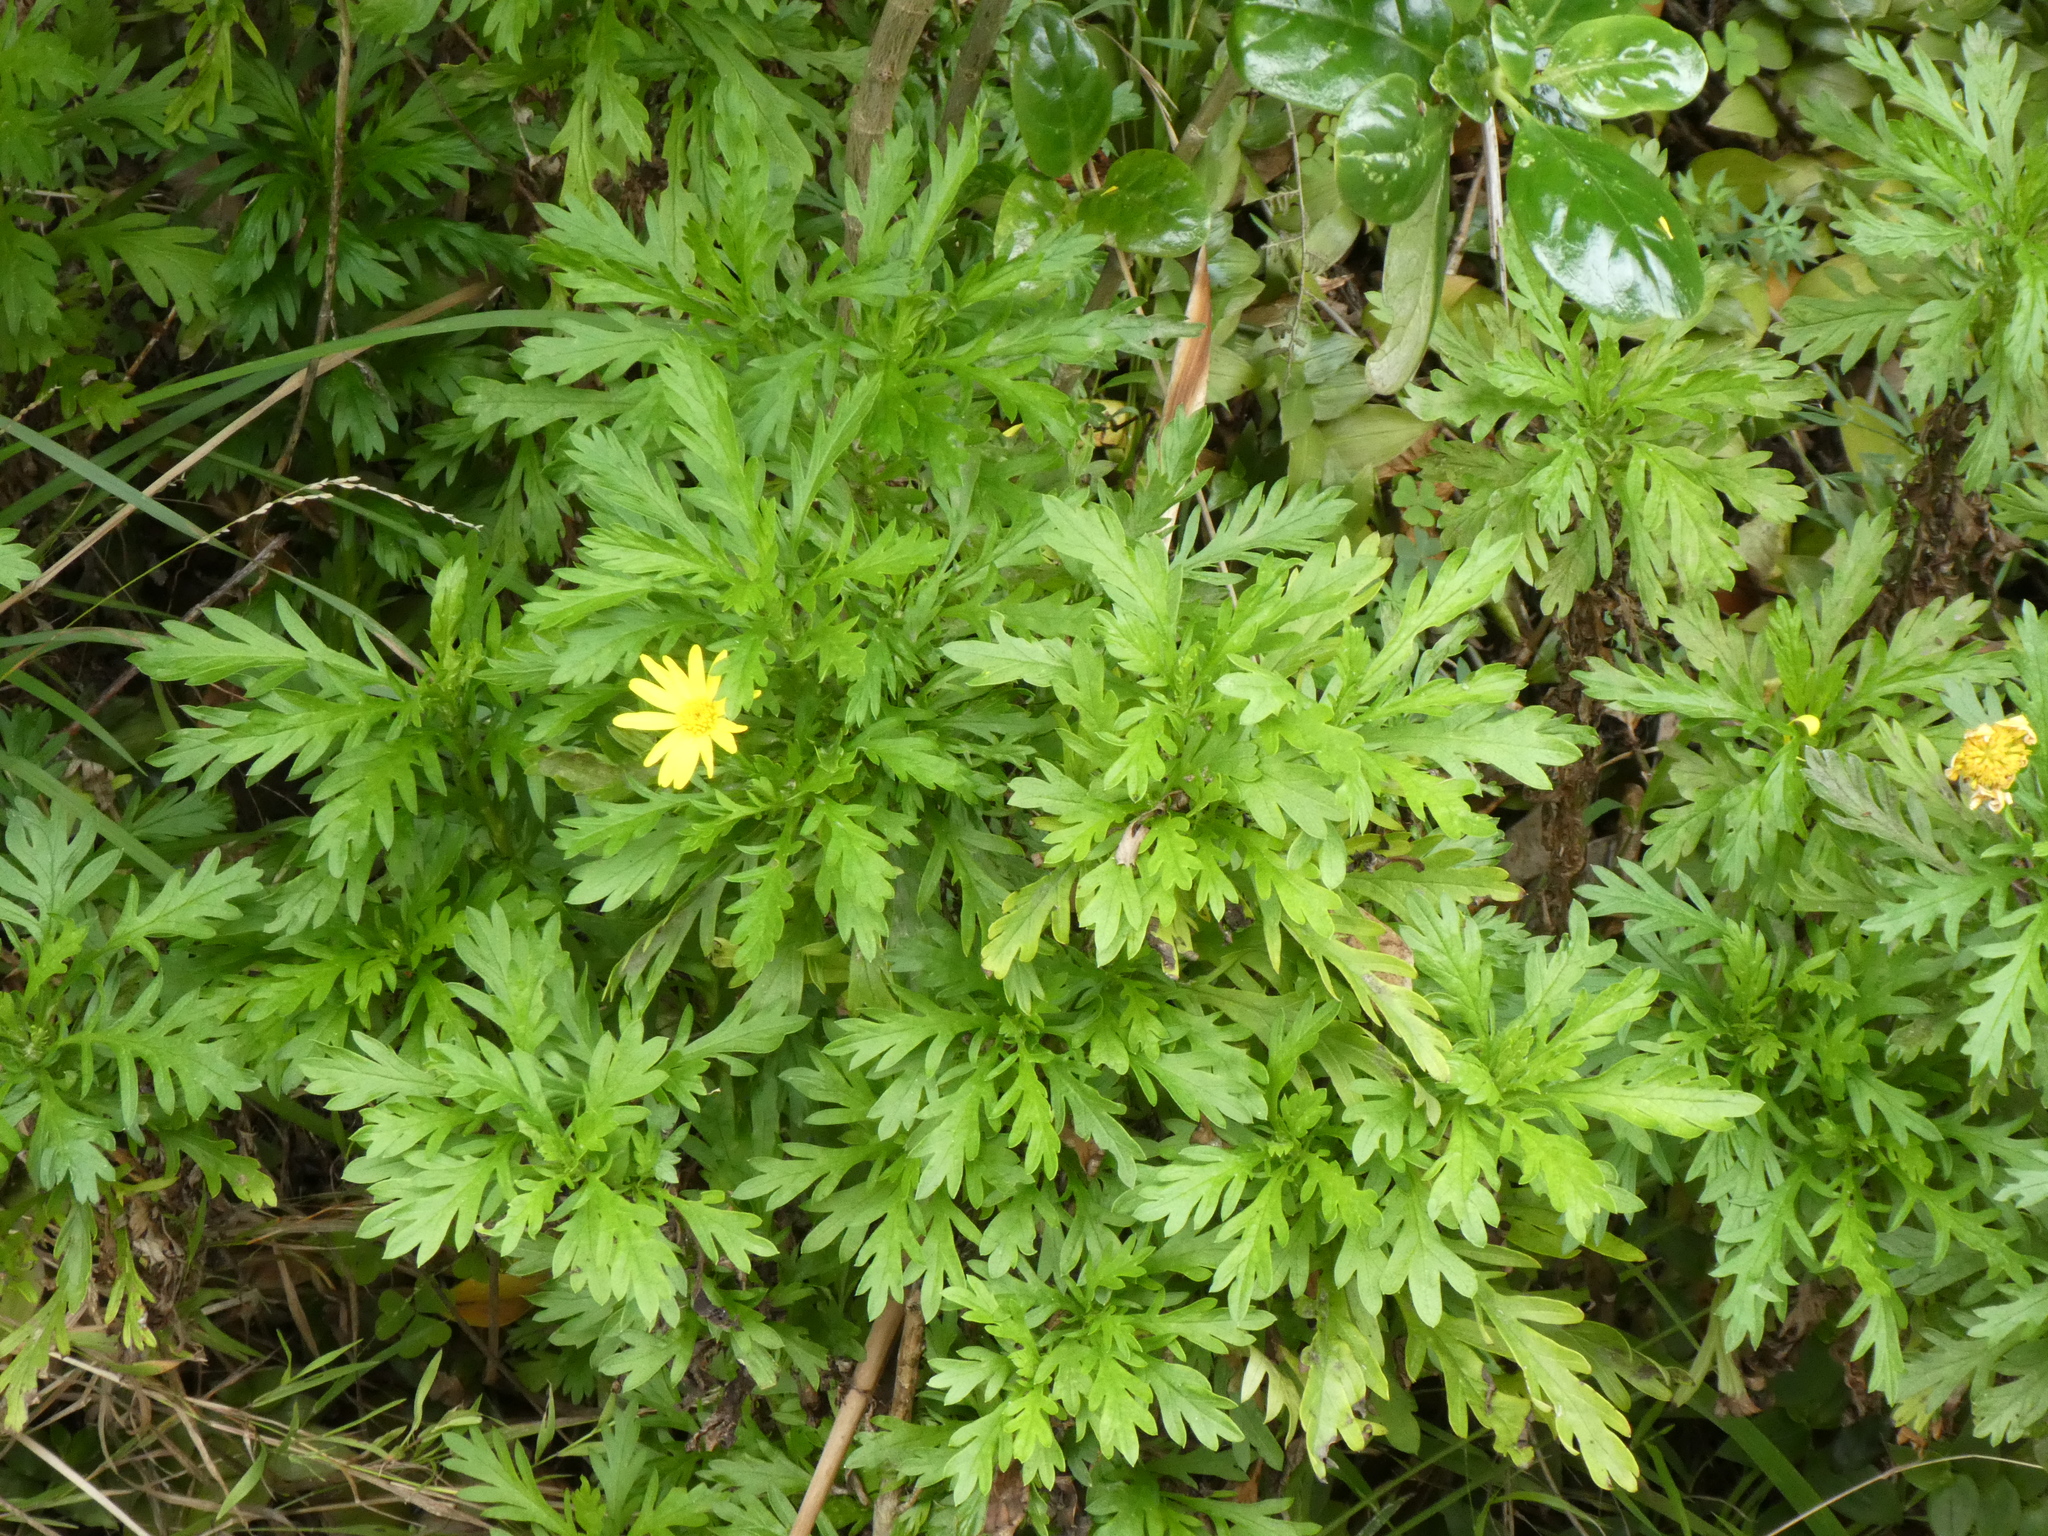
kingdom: Plantae
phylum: Tracheophyta
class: Magnoliopsida
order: Asterales
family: Asteraceae
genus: Euryops
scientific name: Euryops chrysanthemoides
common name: Bull's eye
